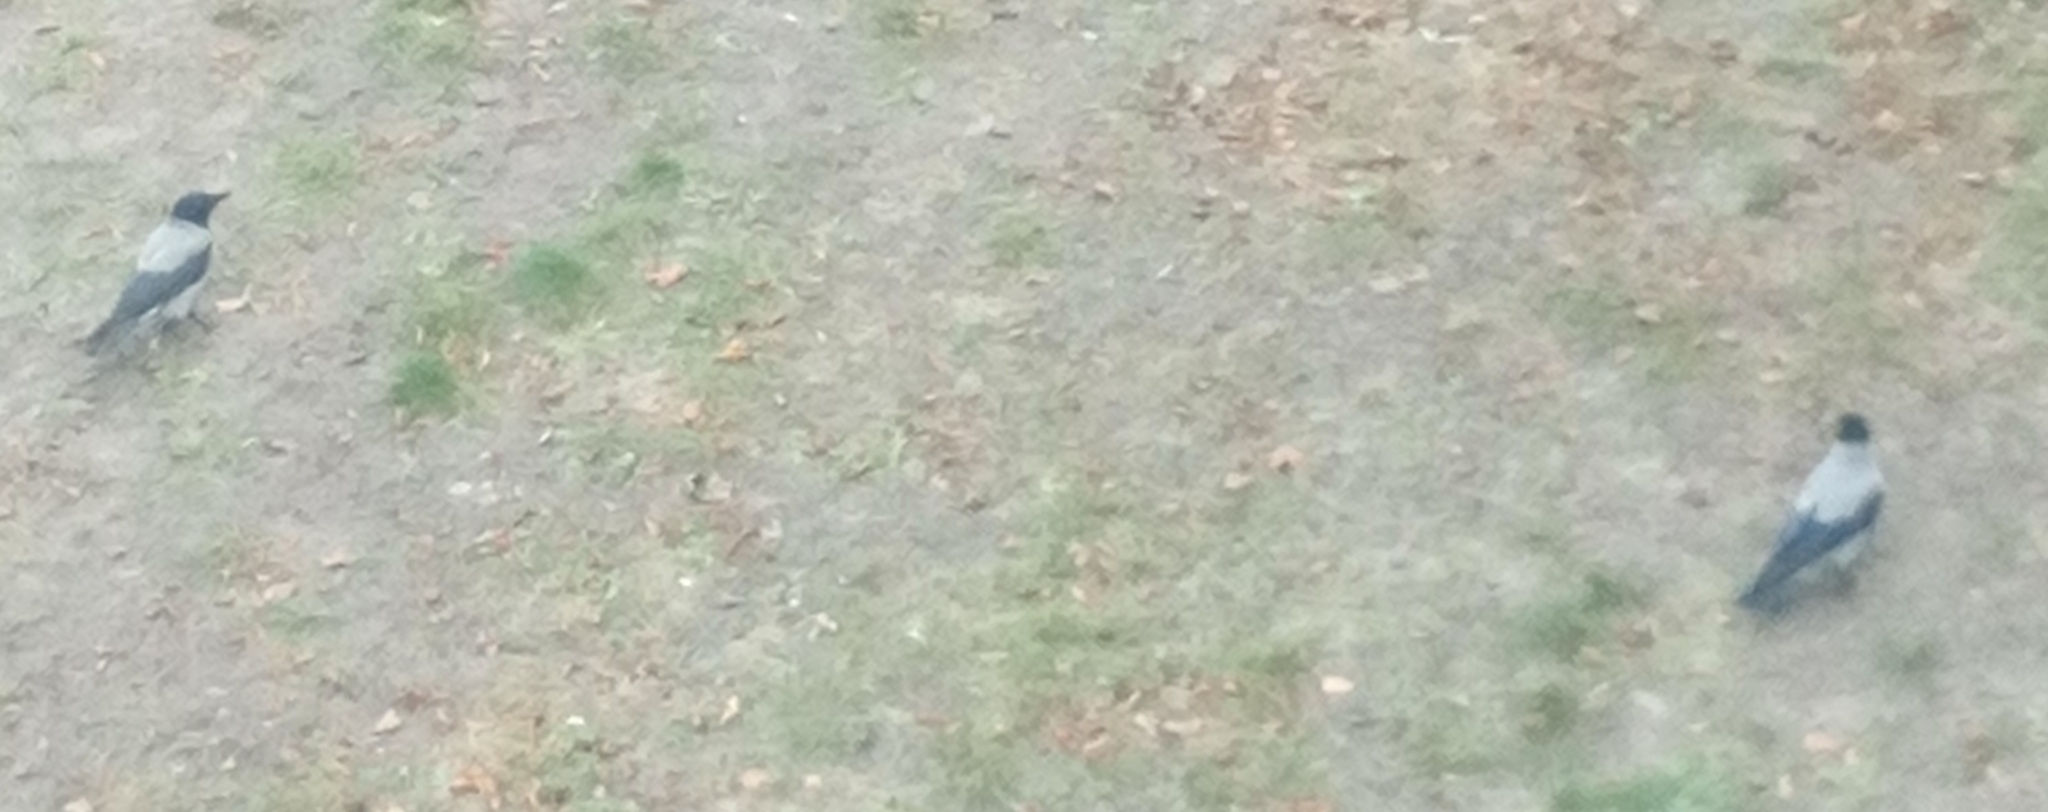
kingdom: Animalia
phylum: Chordata
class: Aves
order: Passeriformes
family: Corvidae
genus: Corvus
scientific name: Corvus cornix
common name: Hooded crow
